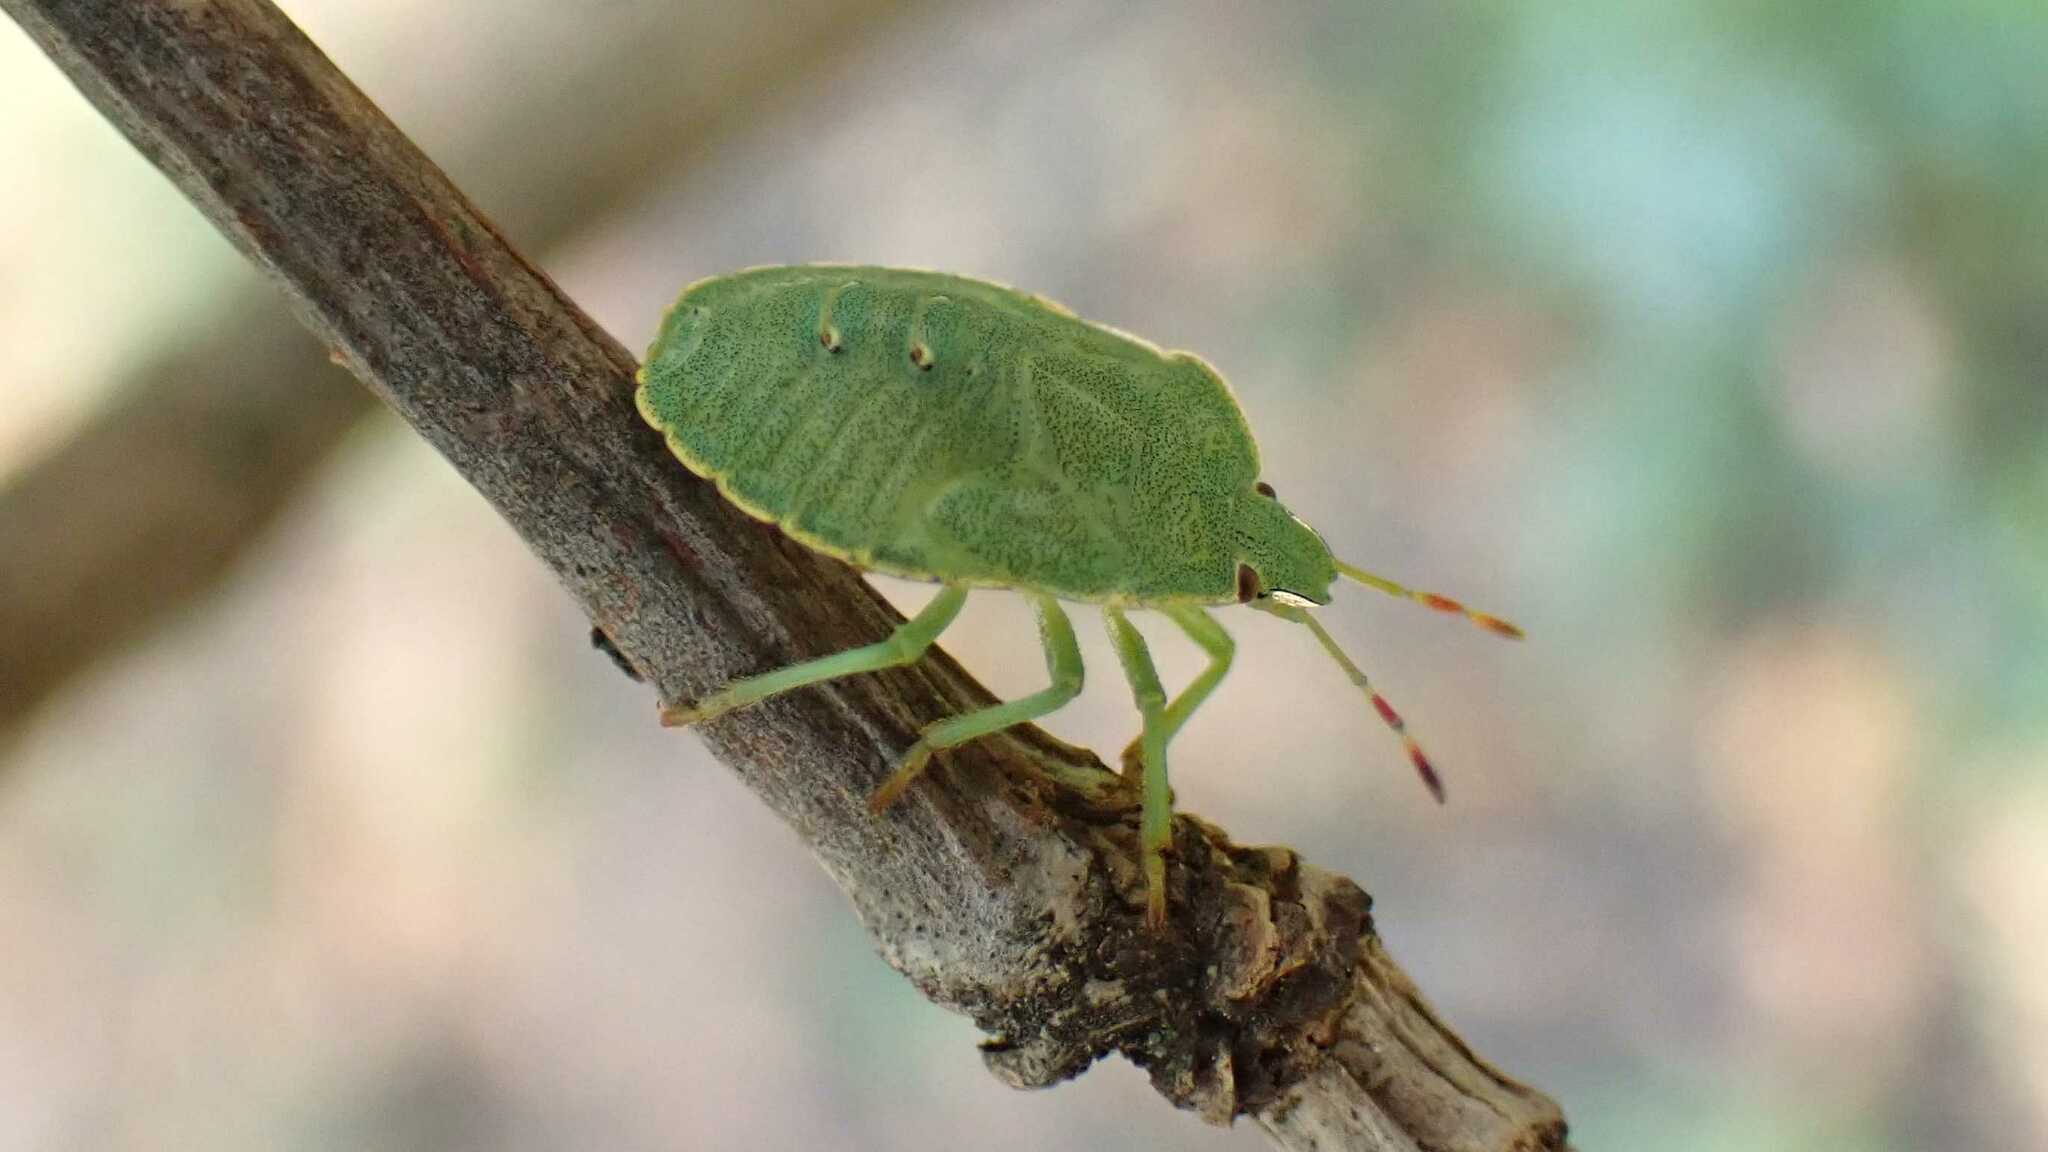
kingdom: Animalia
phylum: Arthropoda
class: Insecta
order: Hemiptera
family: Pentatomidae
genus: Palomena
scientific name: Palomena prasina
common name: Green shieldbug
